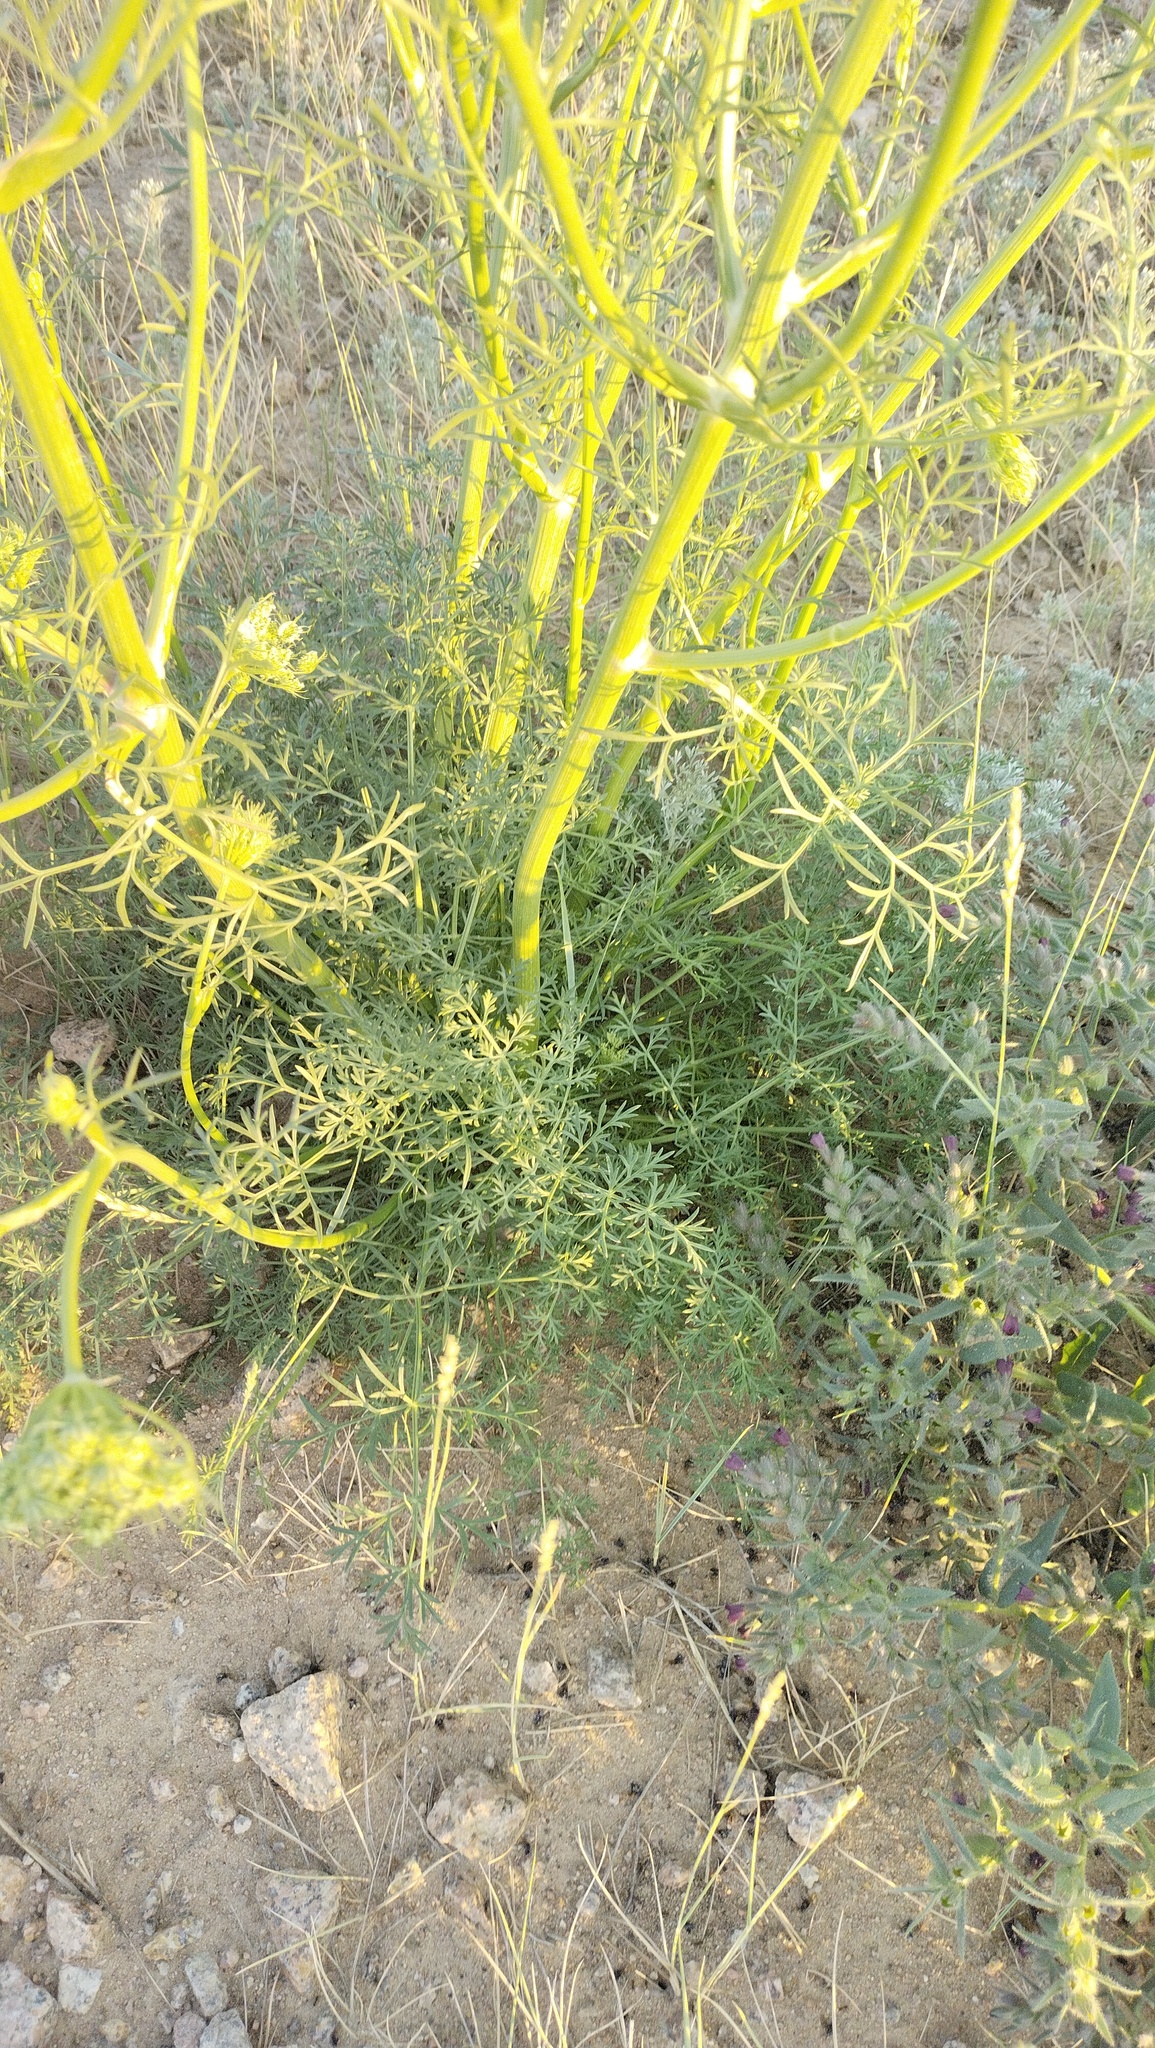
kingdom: Plantae
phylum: Tracheophyta
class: Magnoliopsida
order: Apiales
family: Apiaceae
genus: Kitagawia
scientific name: Kitagawia baicalensis
